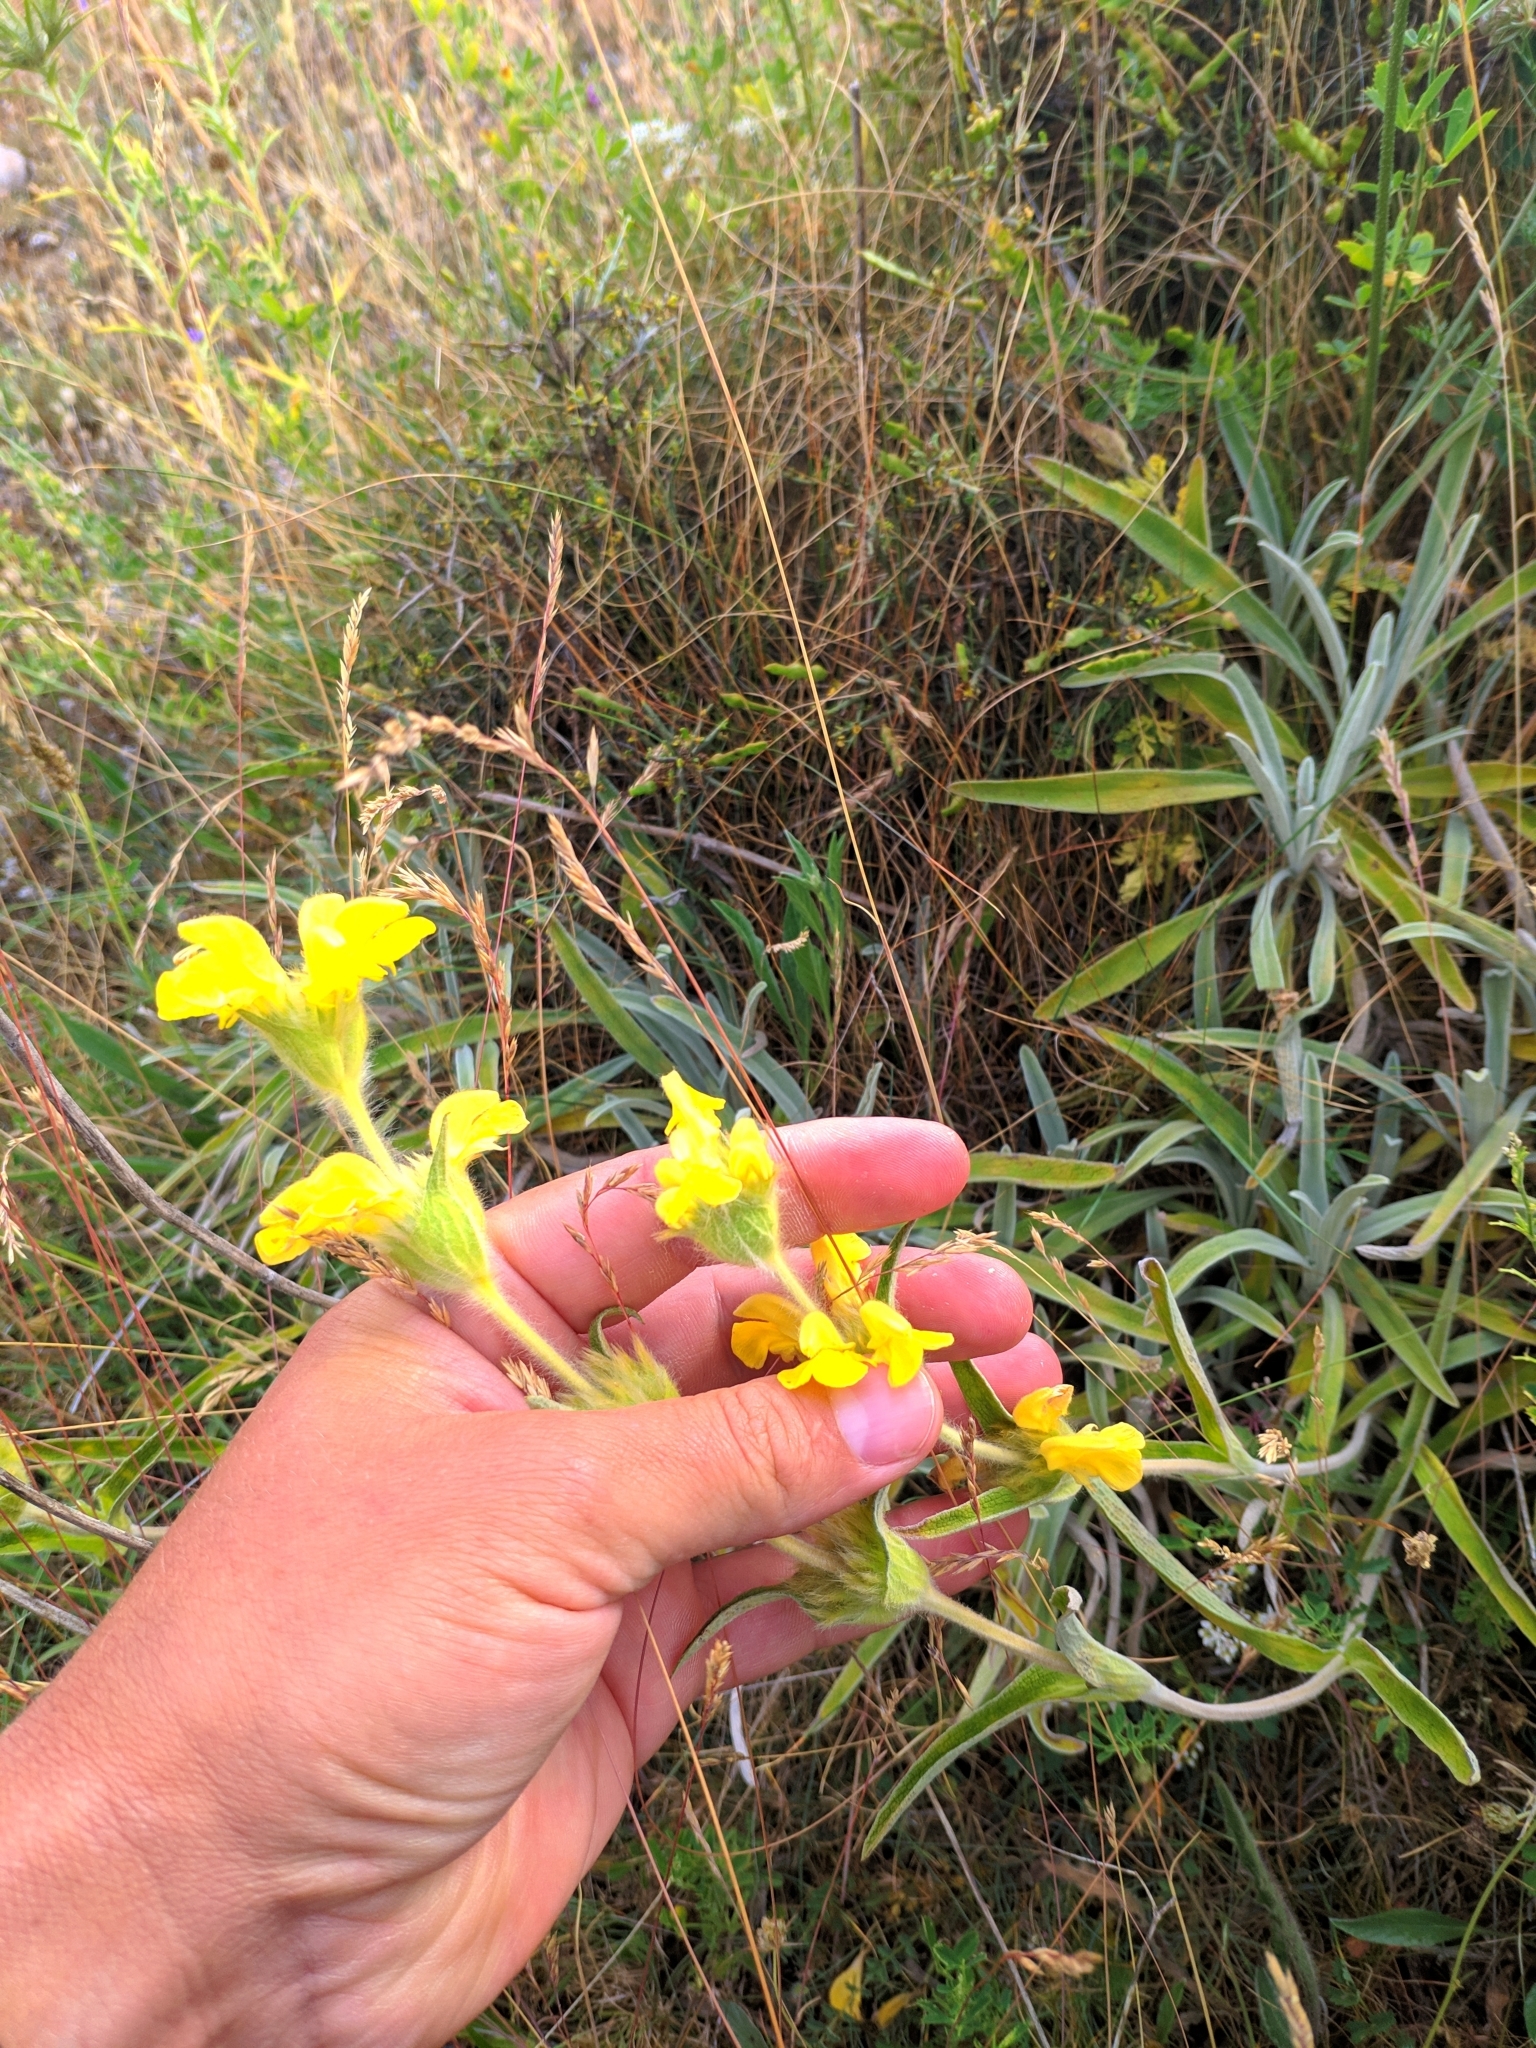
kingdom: Plantae
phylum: Tracheophyta
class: Magnoliopsida
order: Lamiales
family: Lamiaceae
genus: Phlomis
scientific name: Phlomis lychnitis
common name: Lampwickplant
